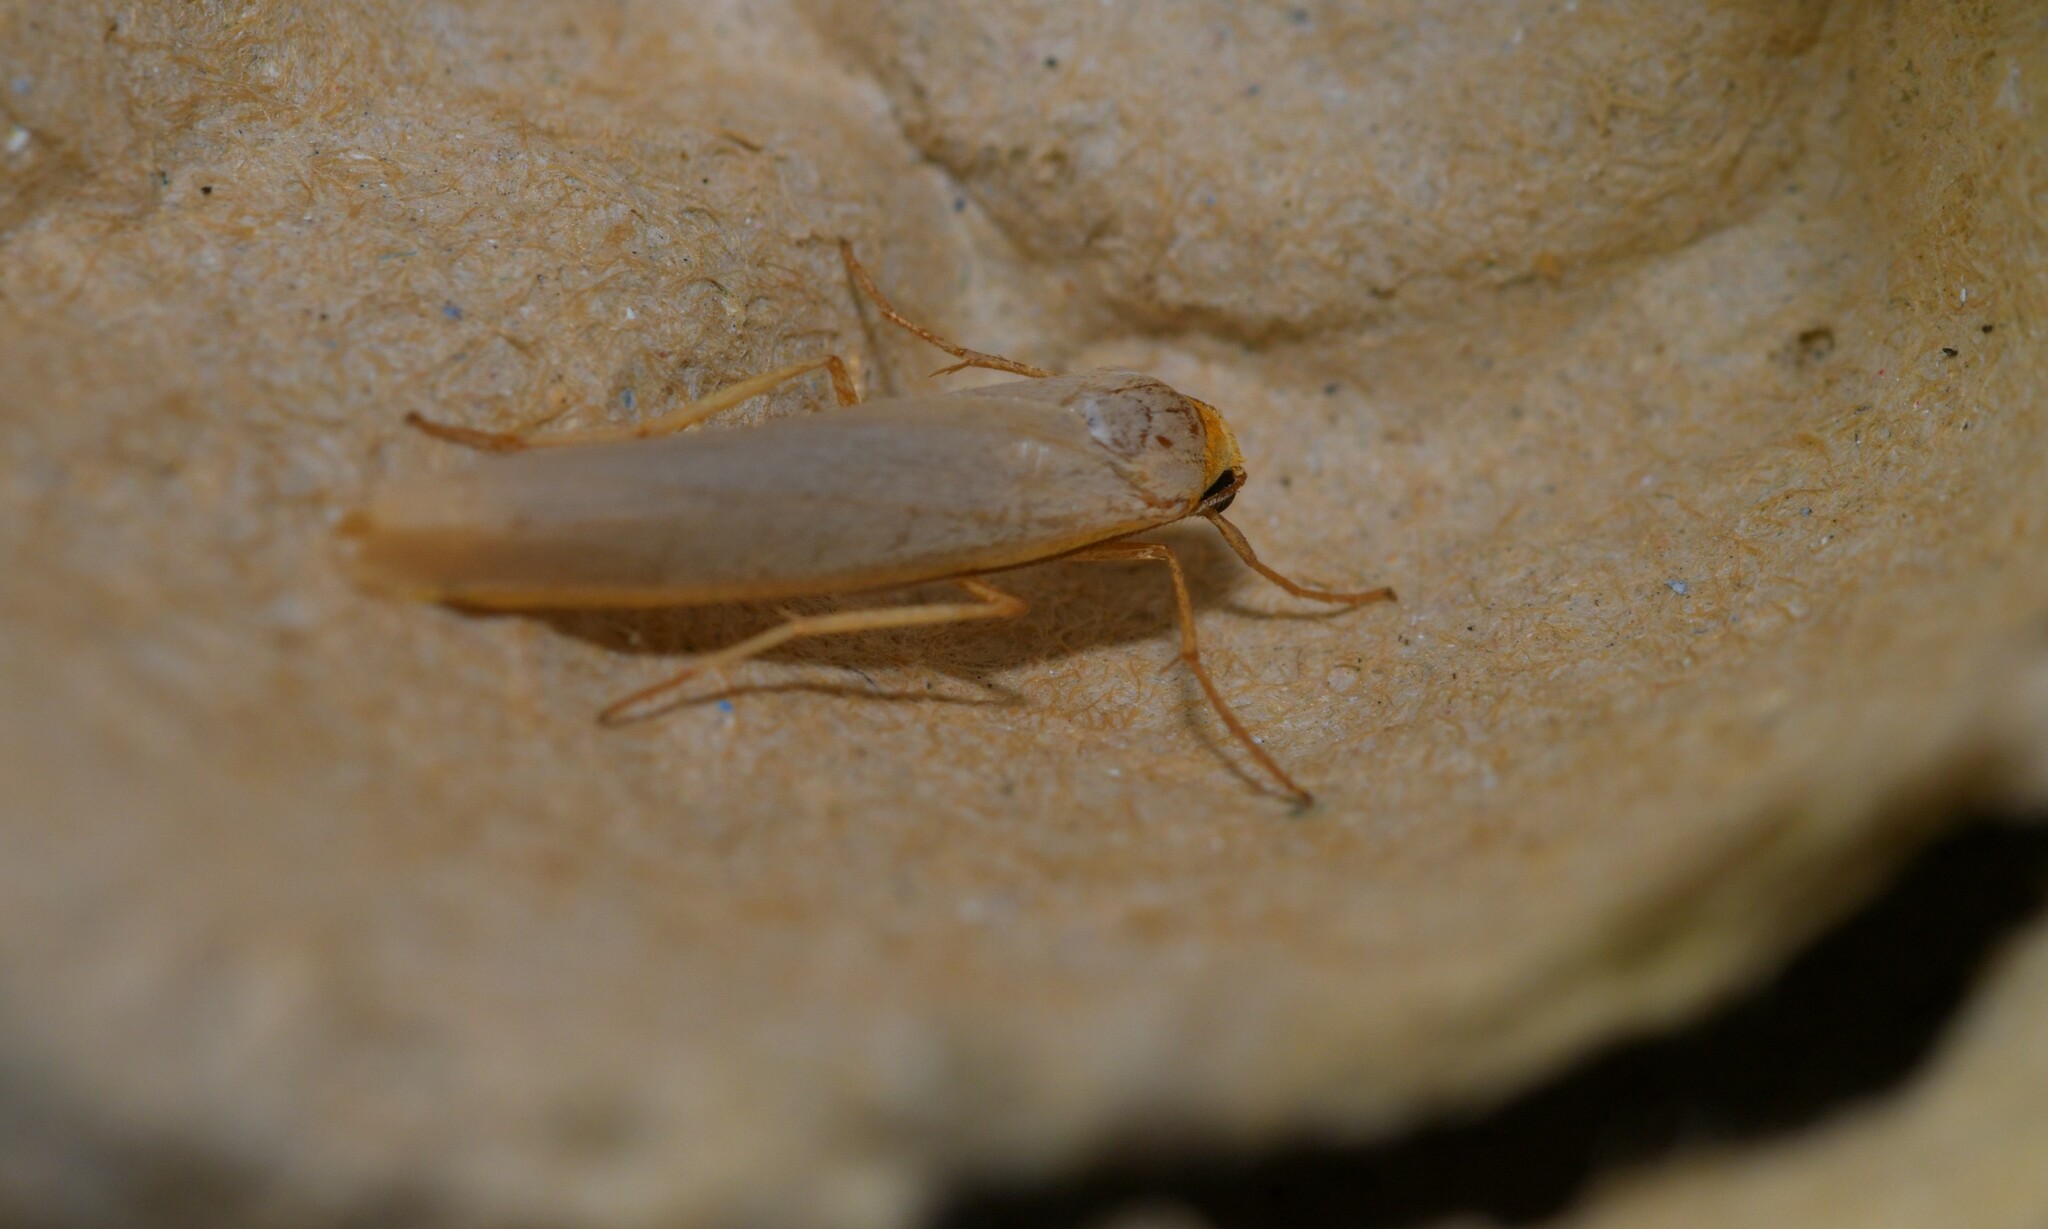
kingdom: Animalia
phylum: Arthropoda
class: Insecta
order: Lepidoptera
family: Erebidae
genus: Eilema
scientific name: Eilema caniola
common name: Hoary footman
